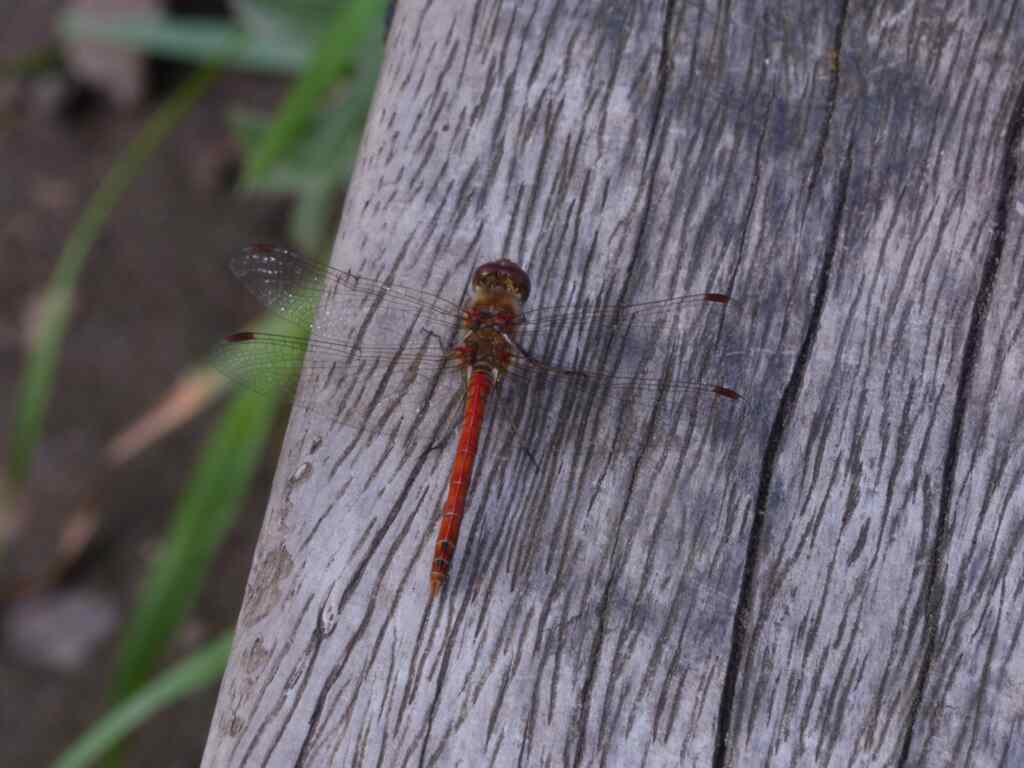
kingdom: Animalia
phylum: Arthropoda
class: Insecta
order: Odonata
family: Libellulidae
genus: Sympetrum
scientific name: Sympetrum striolatum
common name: Common darter
